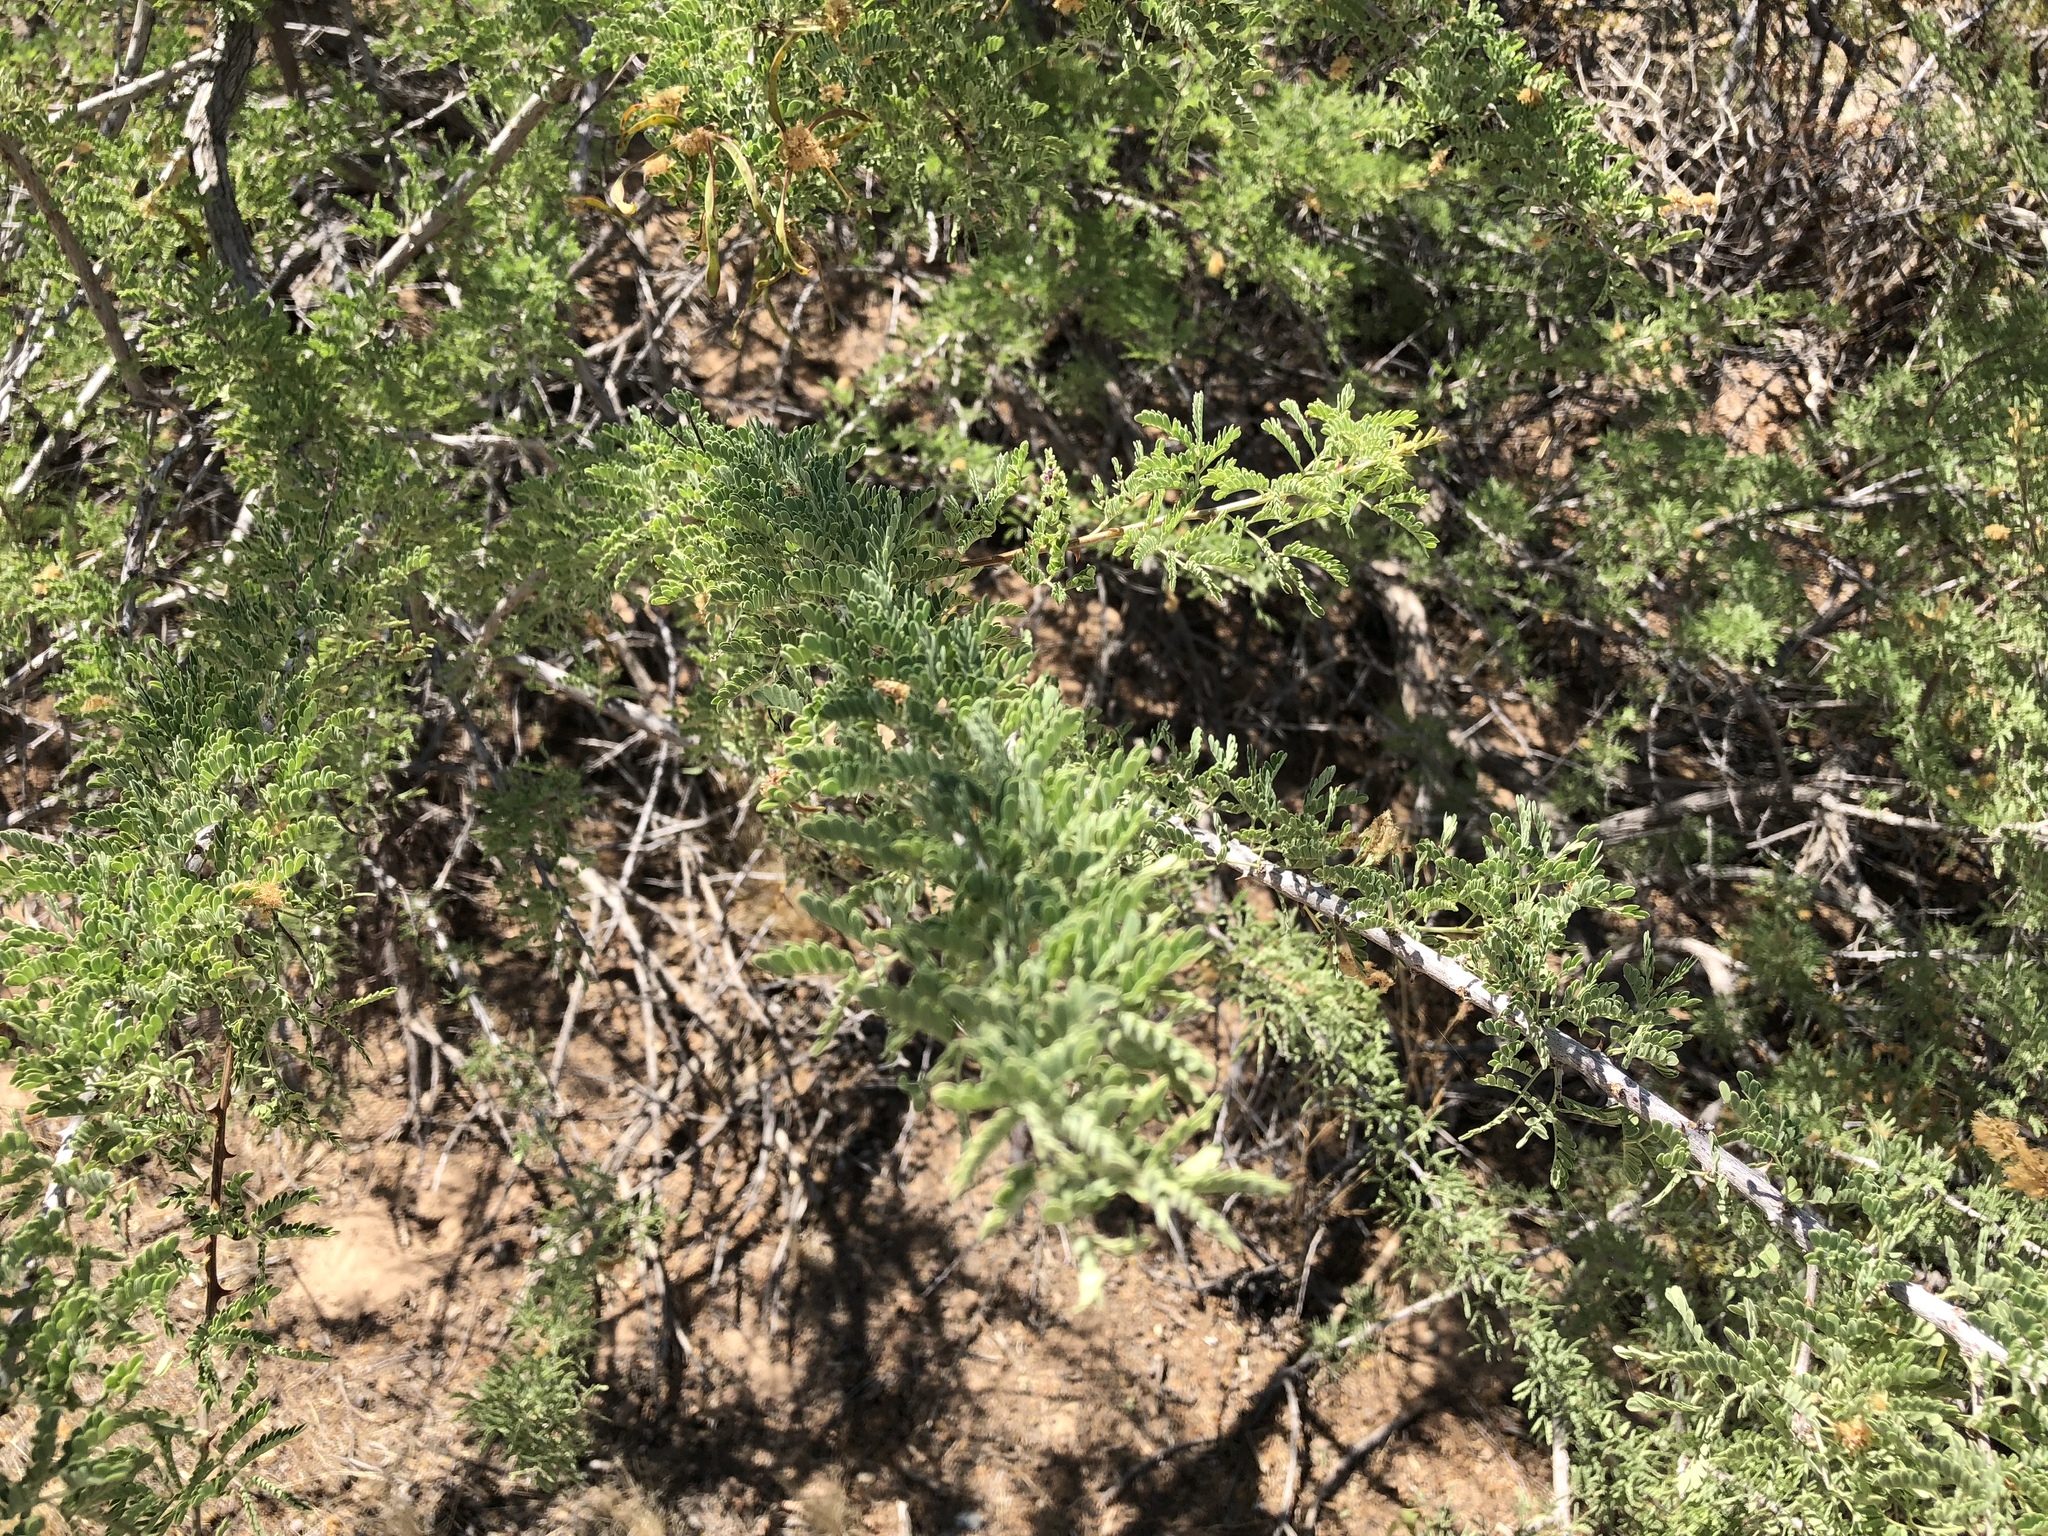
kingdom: Plantae
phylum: Tracheophyta
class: Magnoliopsida
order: Fabales
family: Fabaceae
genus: Senegalia
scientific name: Senegalia greggii
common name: Texas-mimosa
